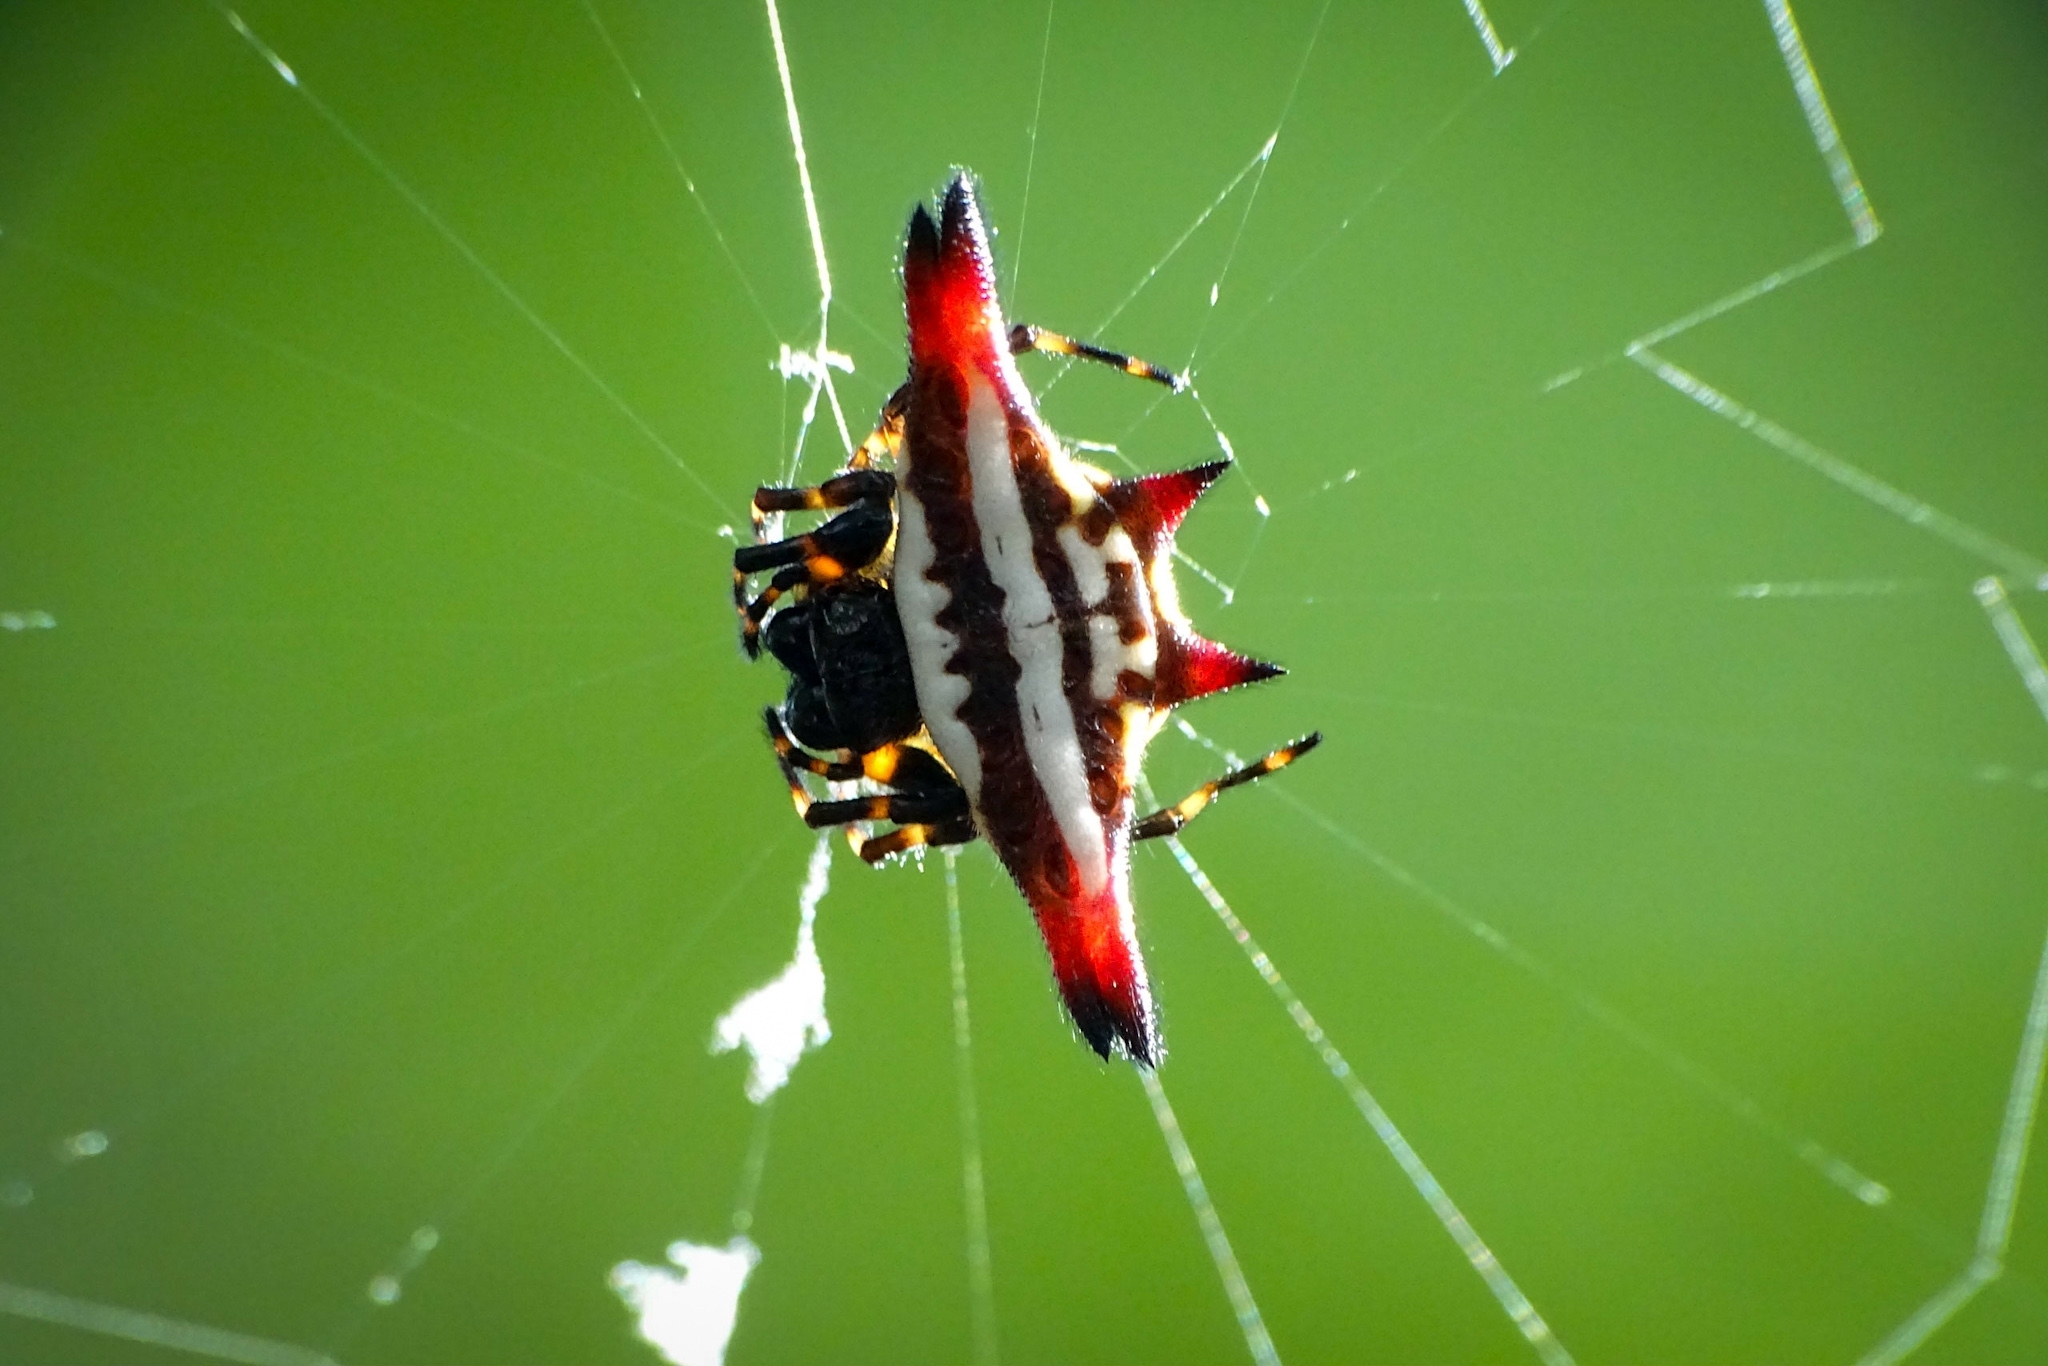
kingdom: Animalia
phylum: Arthropoda
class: Arachnida
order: Araneae
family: Araneidae
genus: Gasteracantha
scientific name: Gasteracantha geminata
